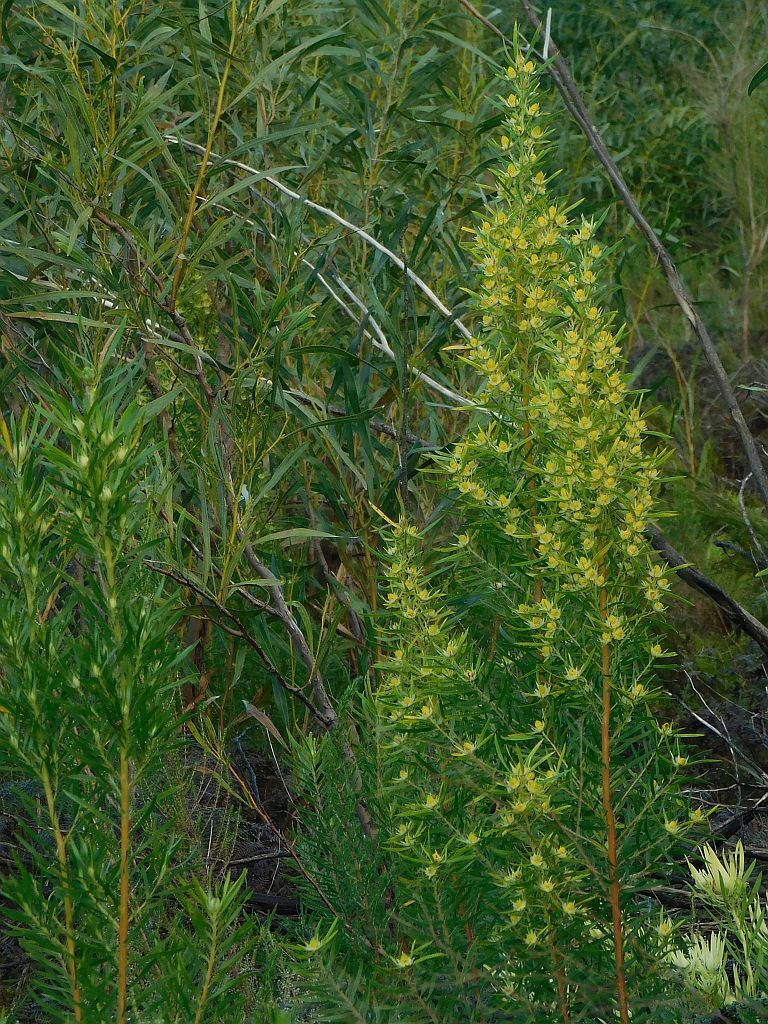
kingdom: Plantae
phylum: Tracheophyta
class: Magnoliopsida
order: Proteales
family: Proteaceae
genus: Leucadendron
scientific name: Leucadendron salicifolium
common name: Common stream conebush
